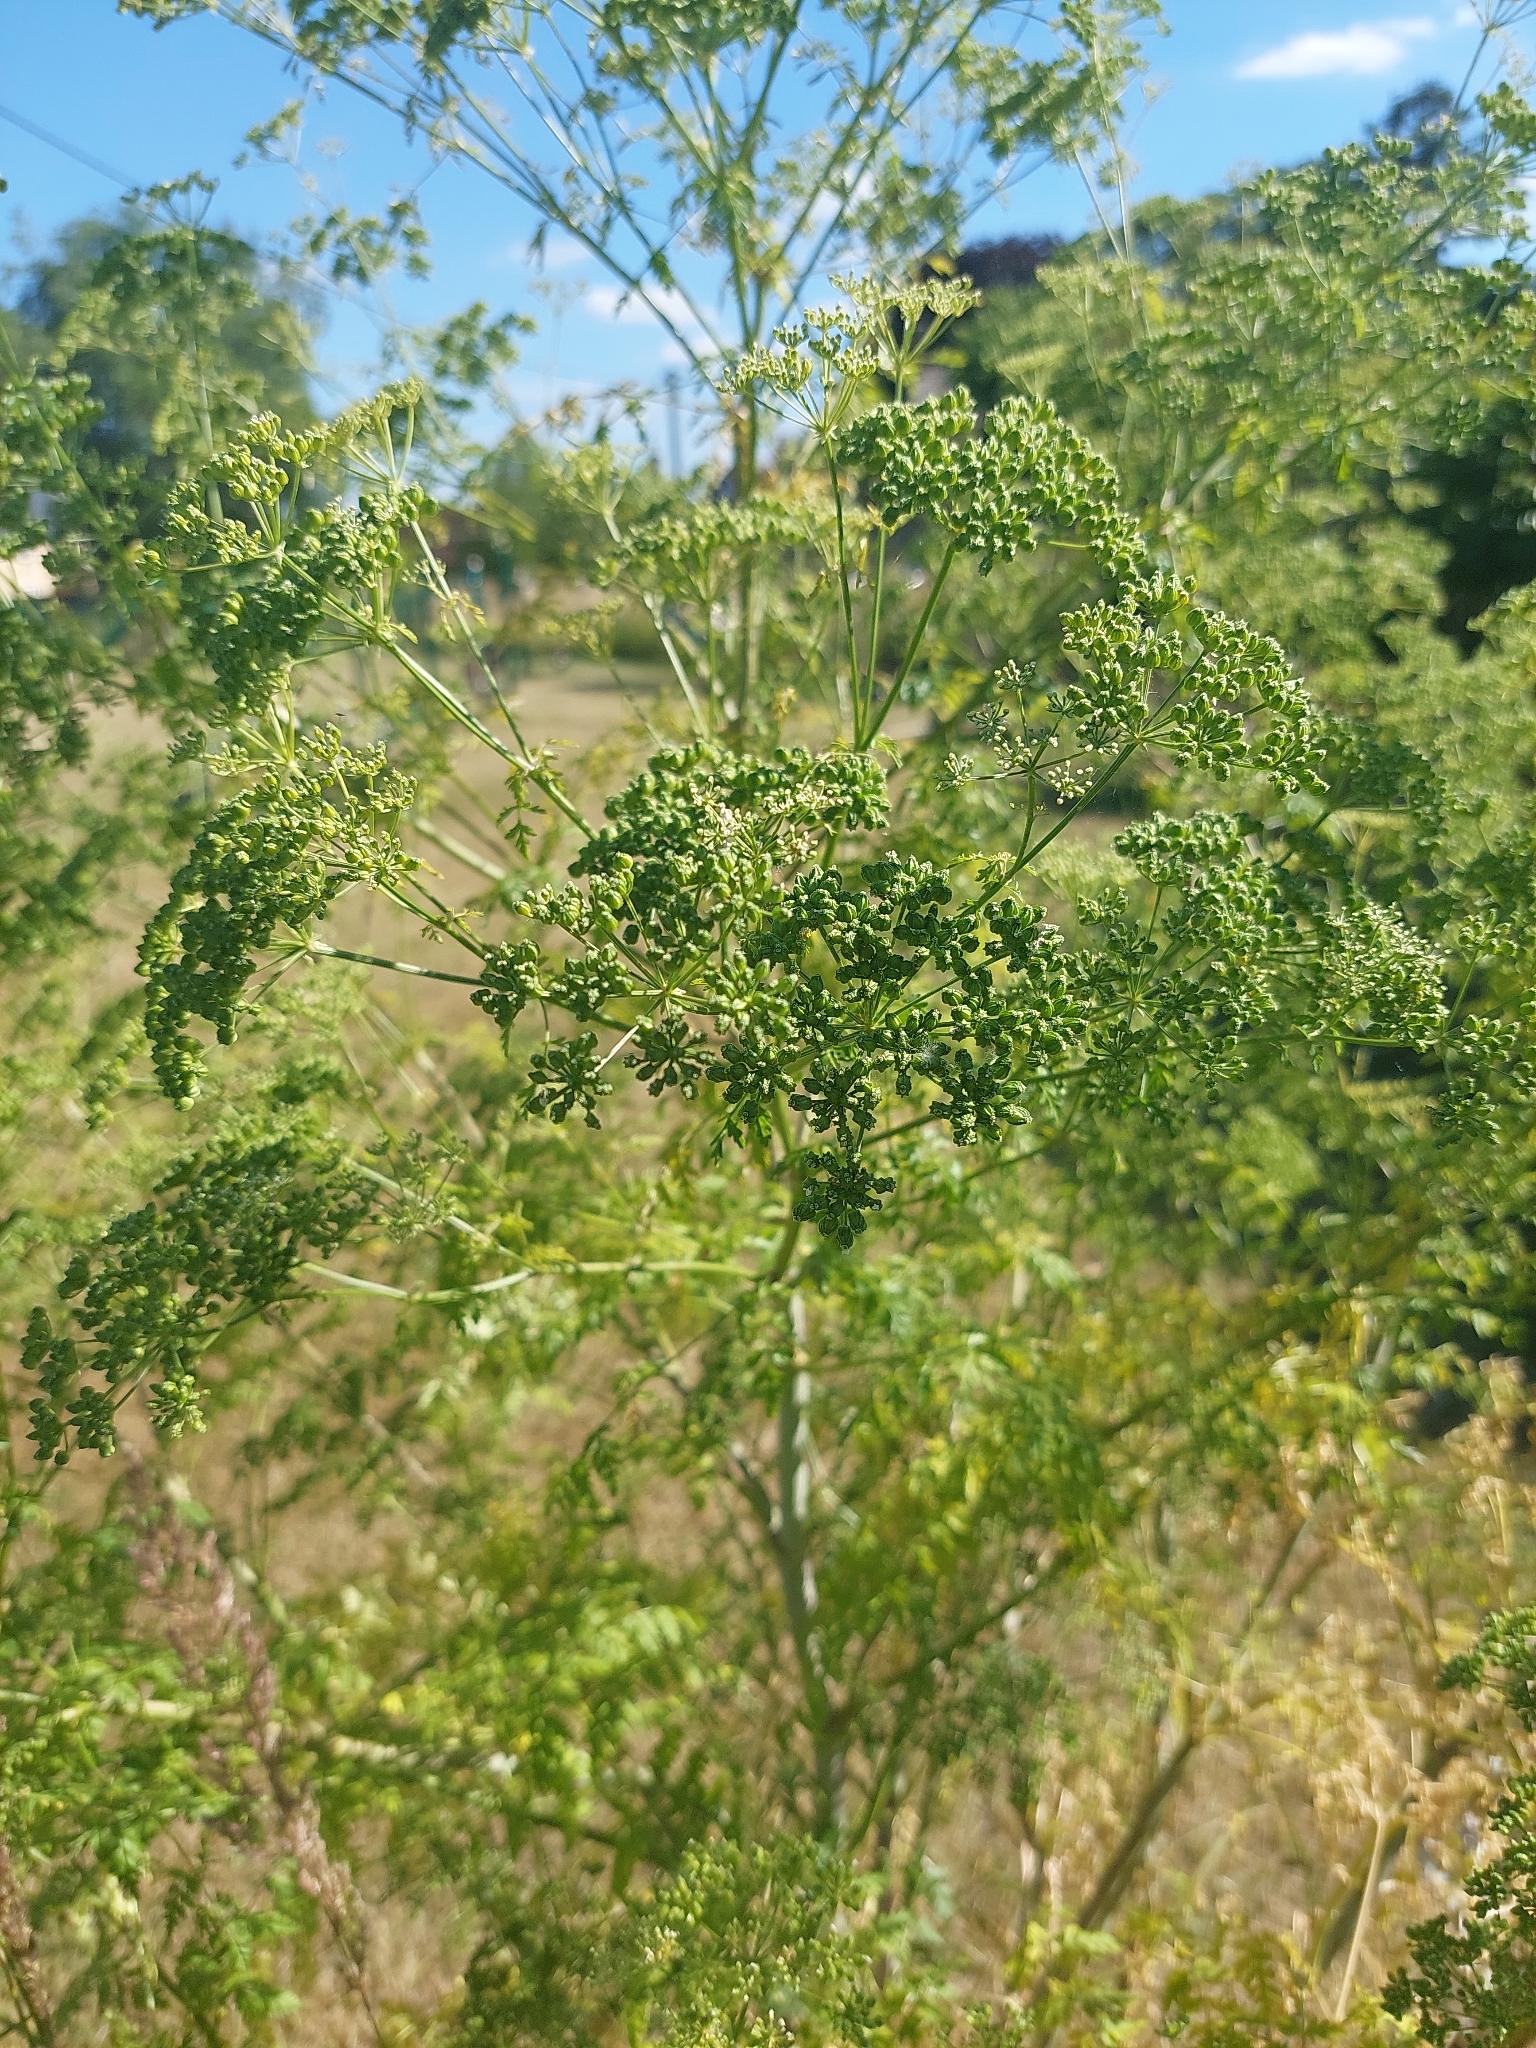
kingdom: Plantae
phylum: Tracheophyta
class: Magnoliopsida
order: Apiales
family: Apiaceae
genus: Conium
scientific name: Conium maculatum
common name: Hemlock
